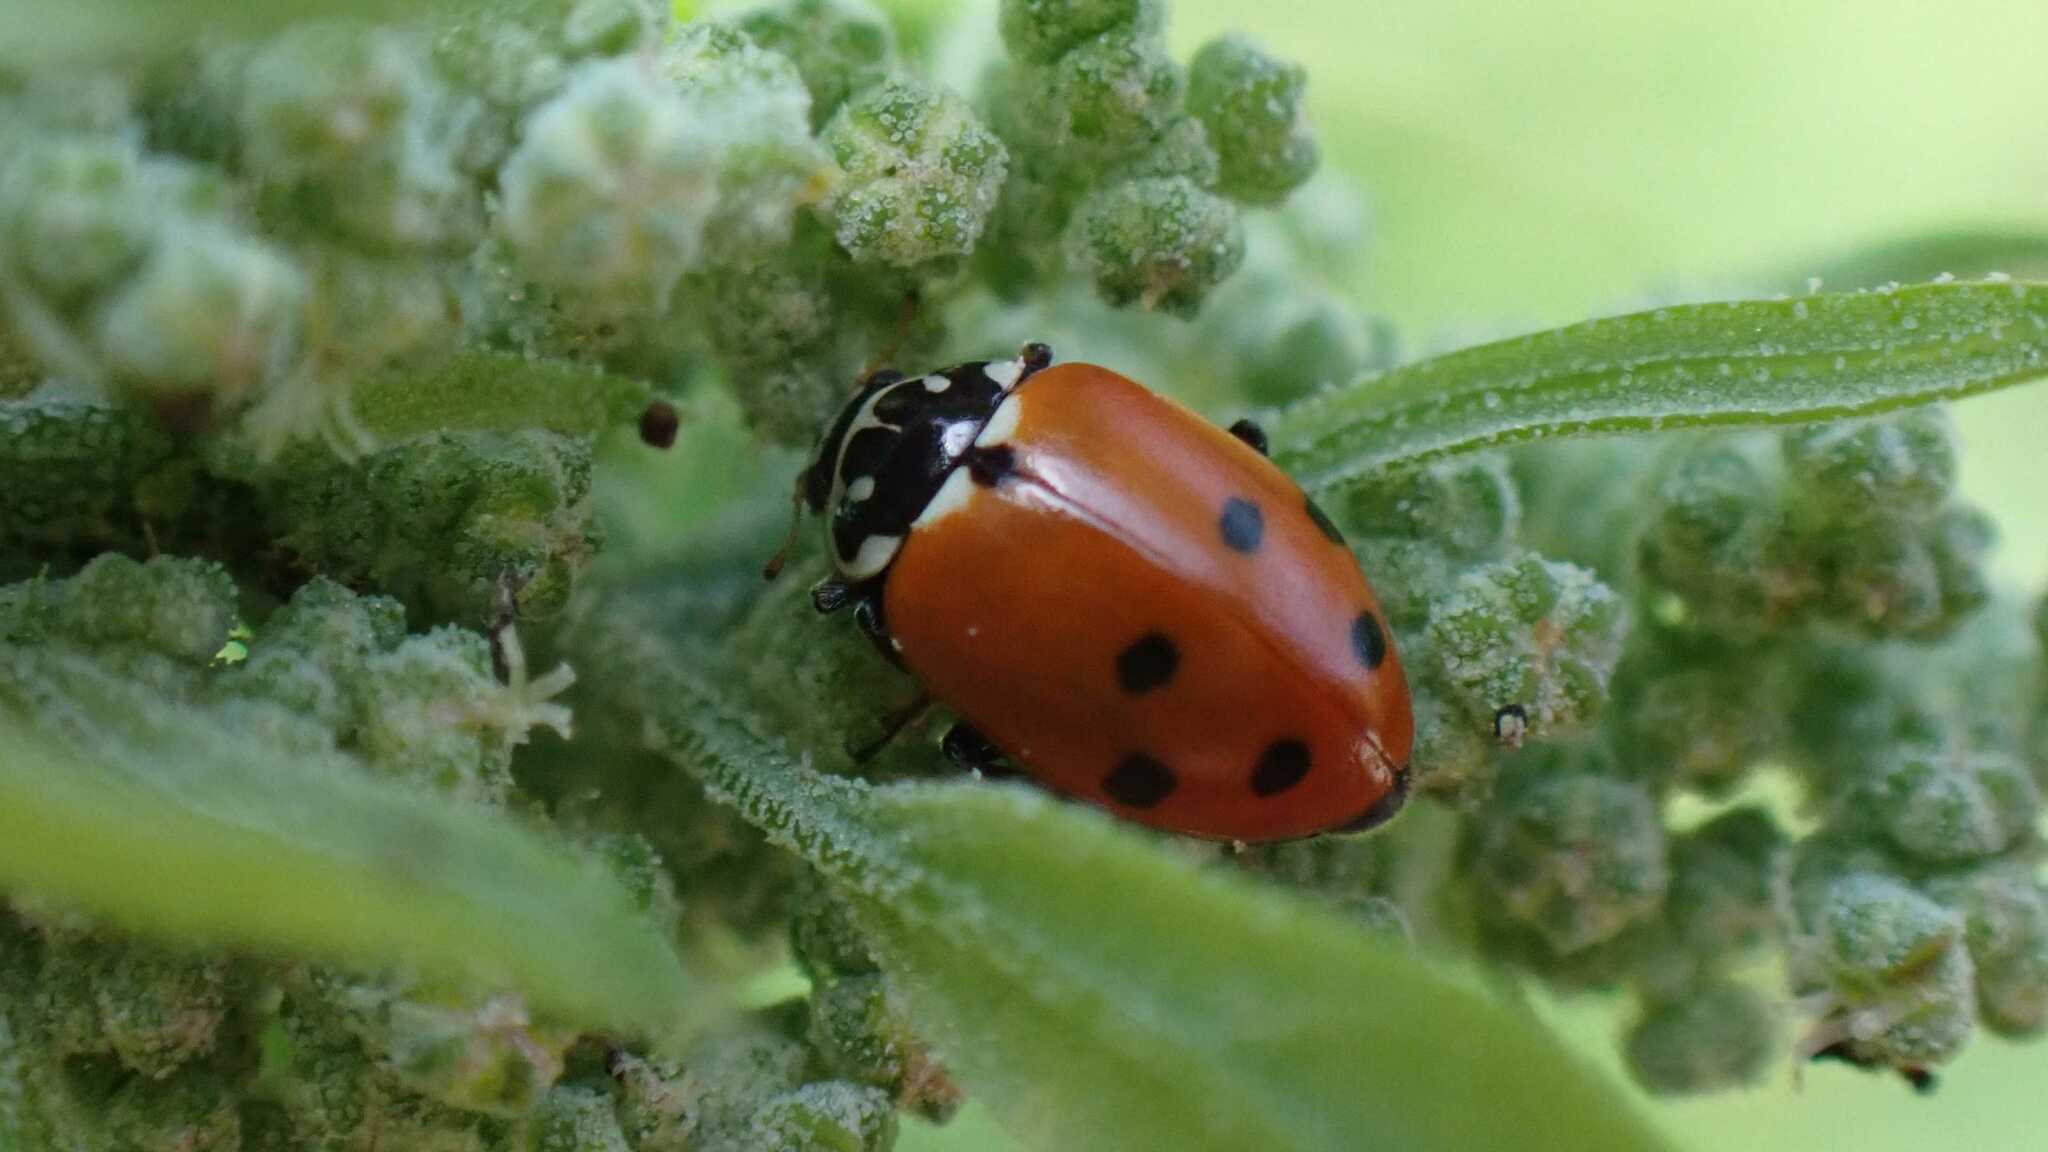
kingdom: Animalia
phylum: Arthropoda
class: Insecta
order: Coleoptera
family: Coccinellidae
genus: Hippodamia
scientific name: Hippodamia variegata
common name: Ladybird beetle
